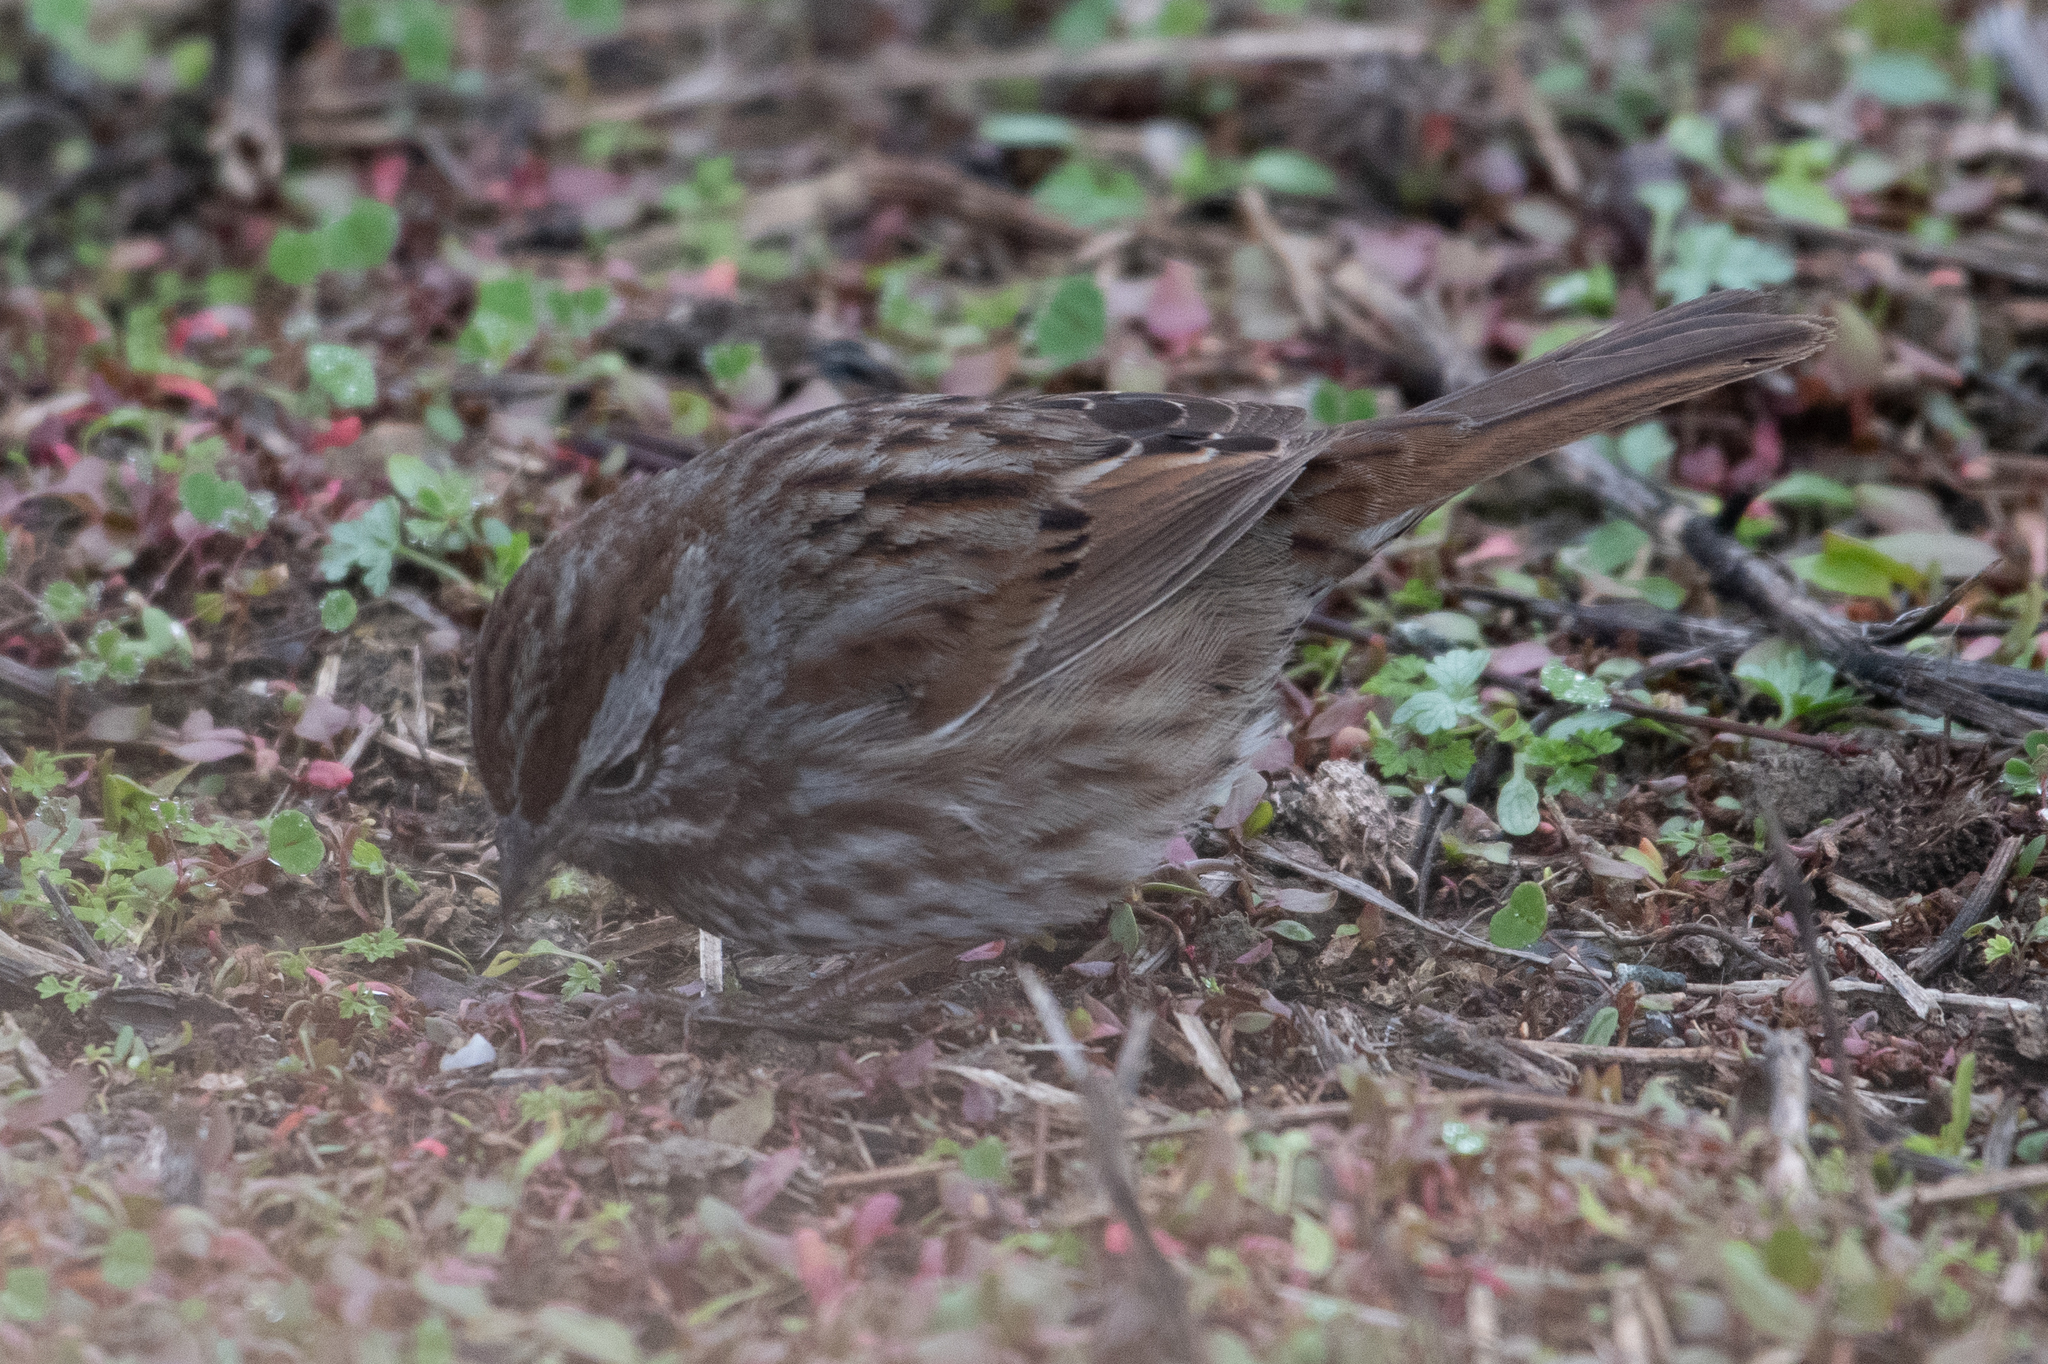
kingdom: Animalia
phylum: Chordata
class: Aves
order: Passeriformes
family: Passerellidae
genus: Melospiza
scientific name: Melospiza melodia
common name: Song sparrow
